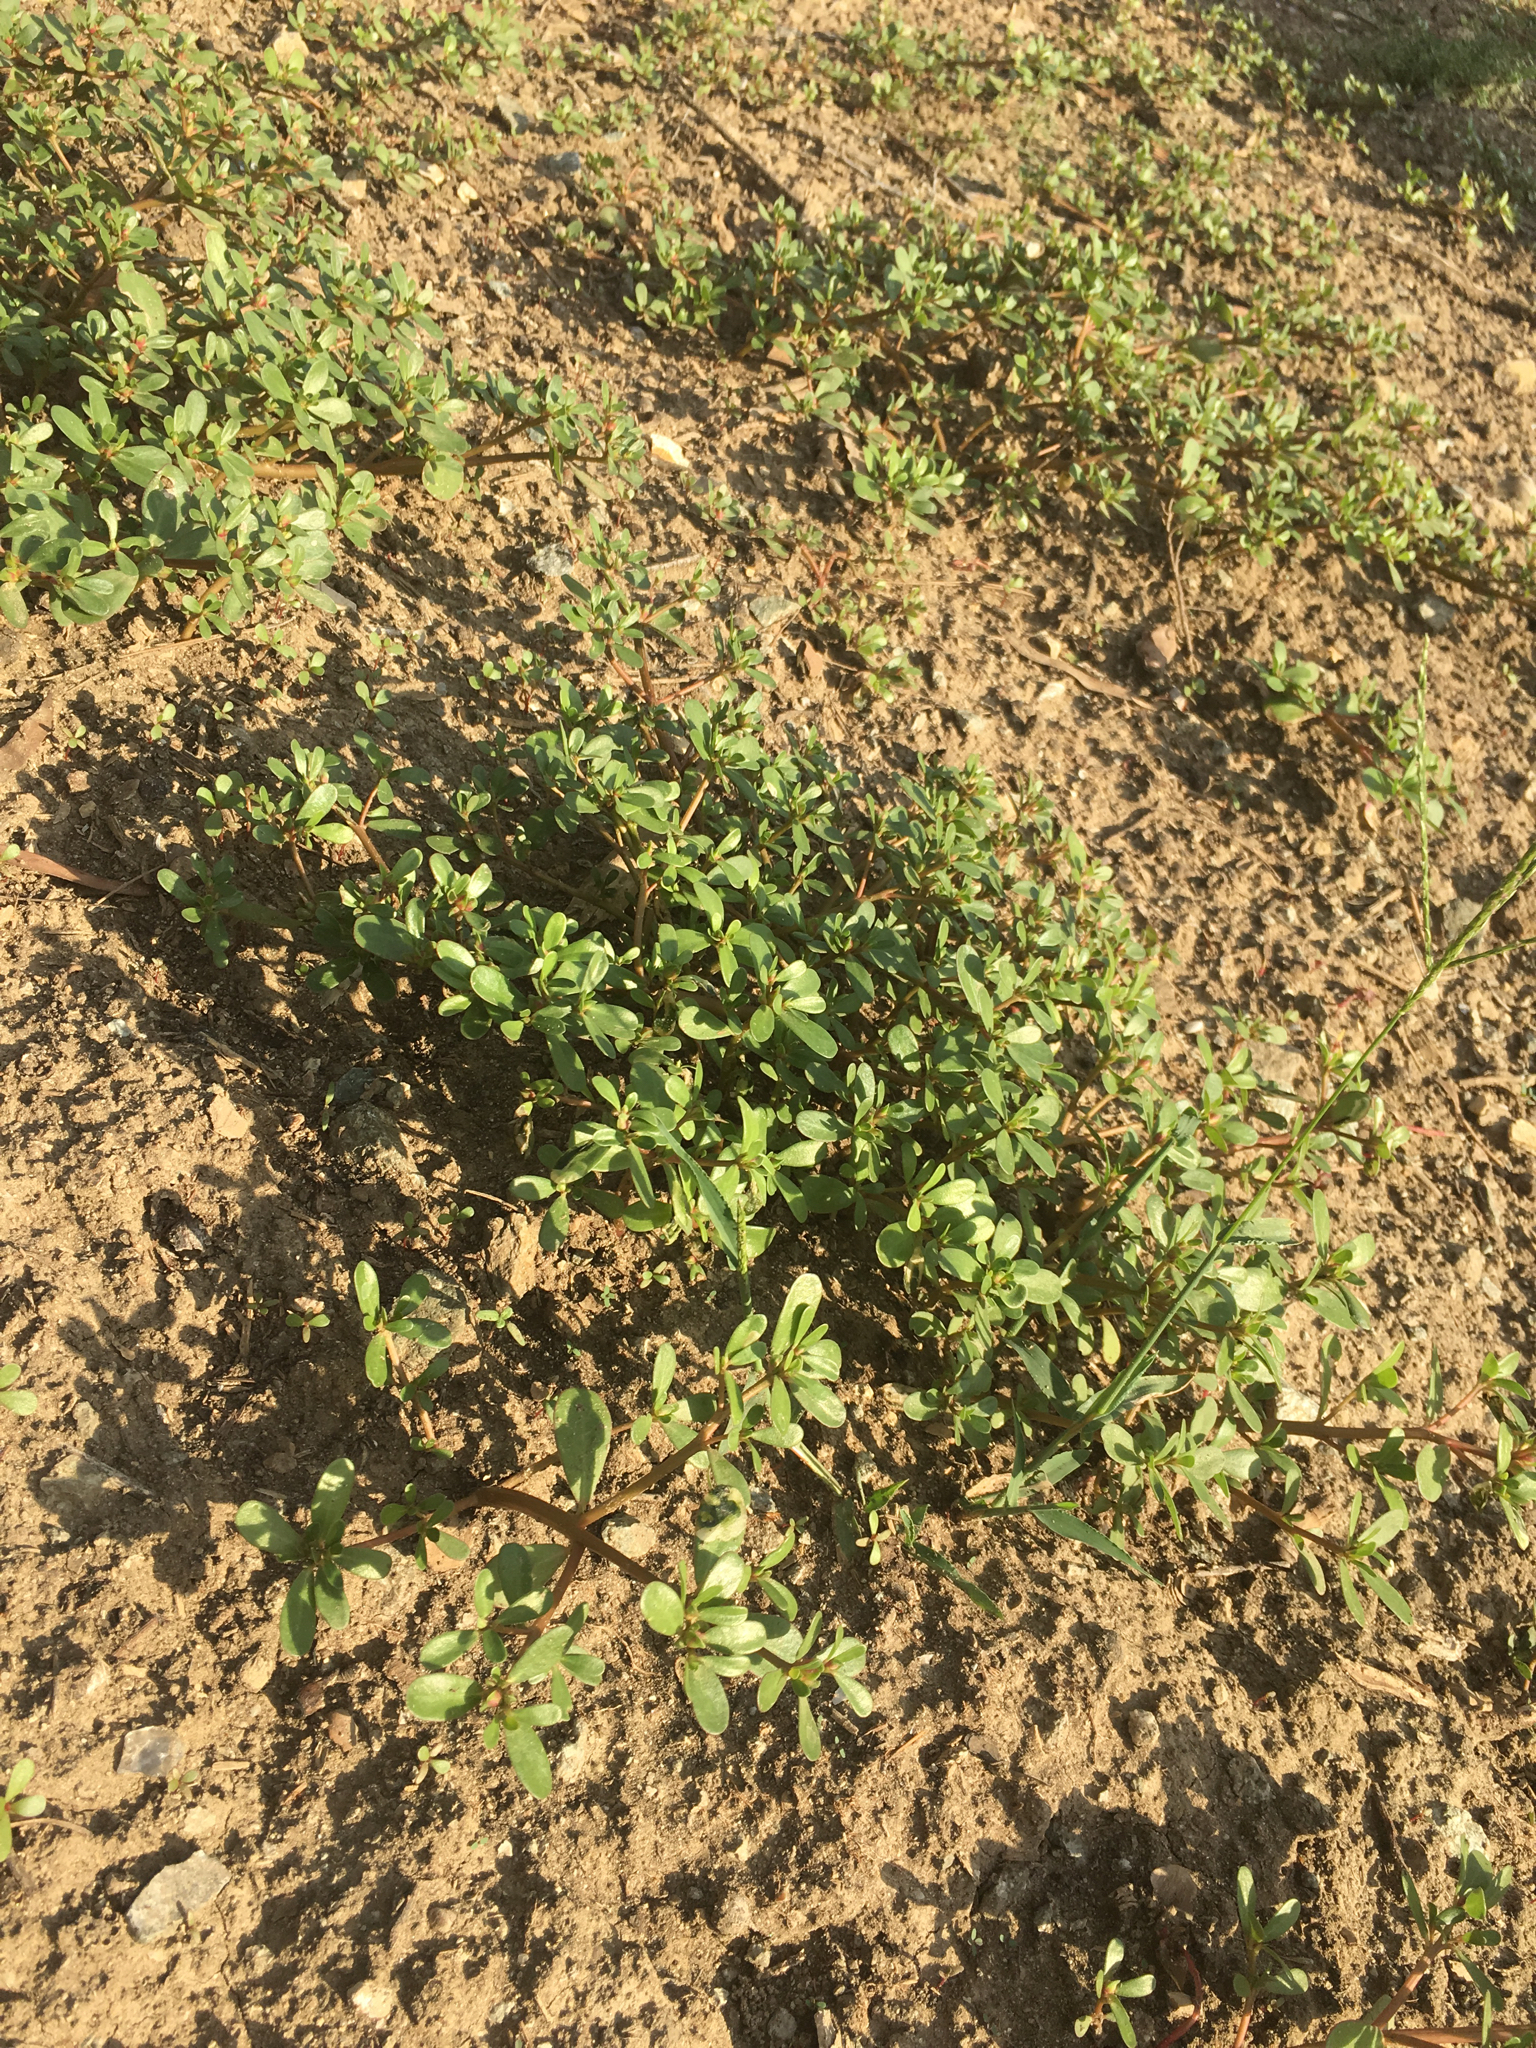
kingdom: Plantae
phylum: Tracheophyta
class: Magnoliopsida
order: Caryophyllales
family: Portulacaceae
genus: Portulaca
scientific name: Portulaca oleracea
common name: Common purslane
